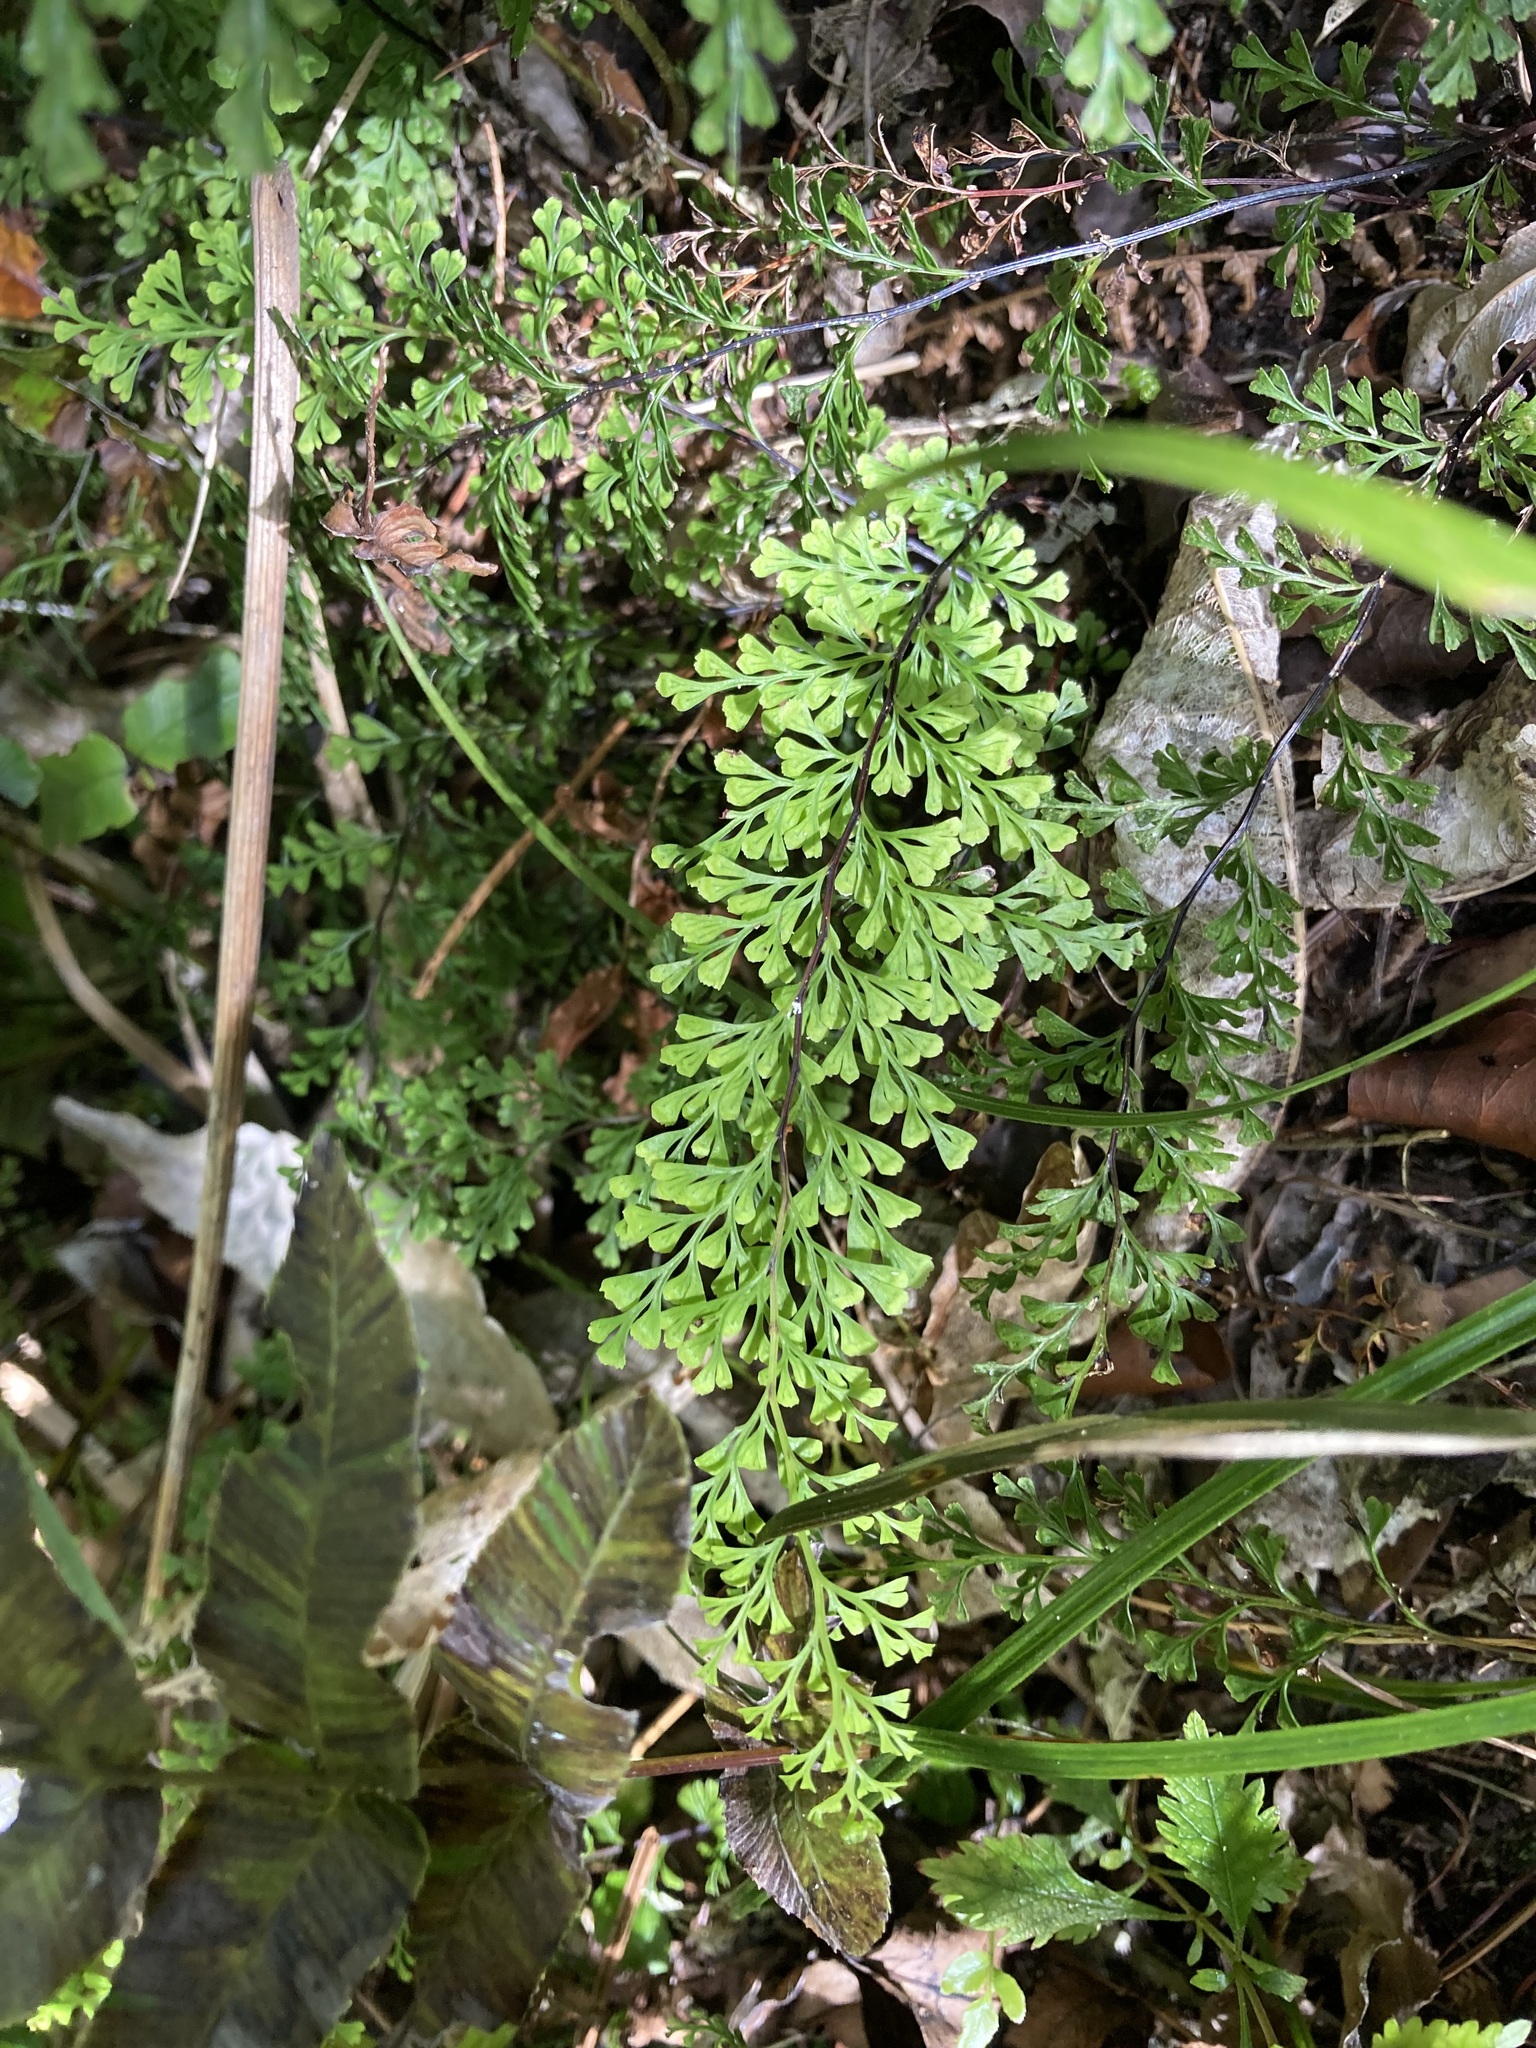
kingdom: Plantae
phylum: Tracheophyta
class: Polypodiopsida
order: Polypodiales
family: Lindsaeaceae
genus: Odontosoria
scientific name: Odontosoria viridis
